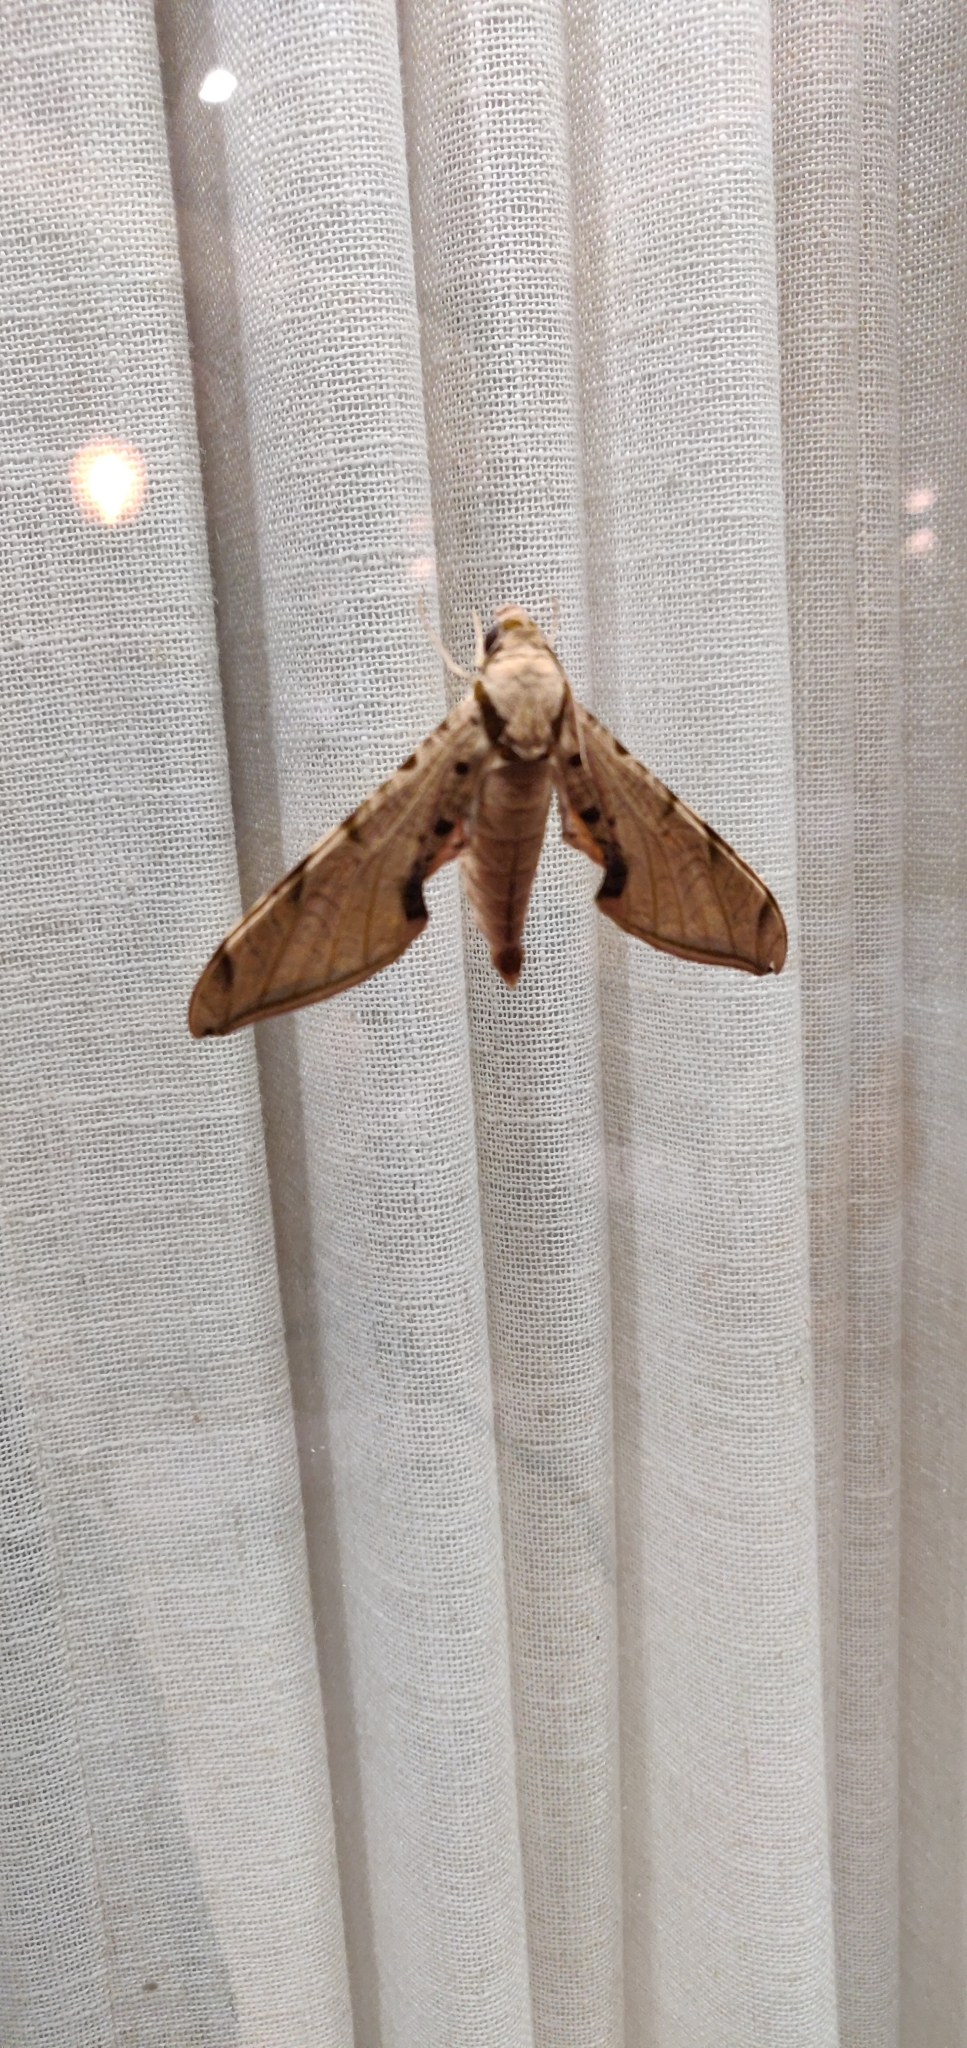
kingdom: Animalia
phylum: Arthropoda
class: Insecta
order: Lepidoptera
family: Sphingidae
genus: Protambulyx
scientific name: Protambulyx strigilis
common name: Streaked sphinx
